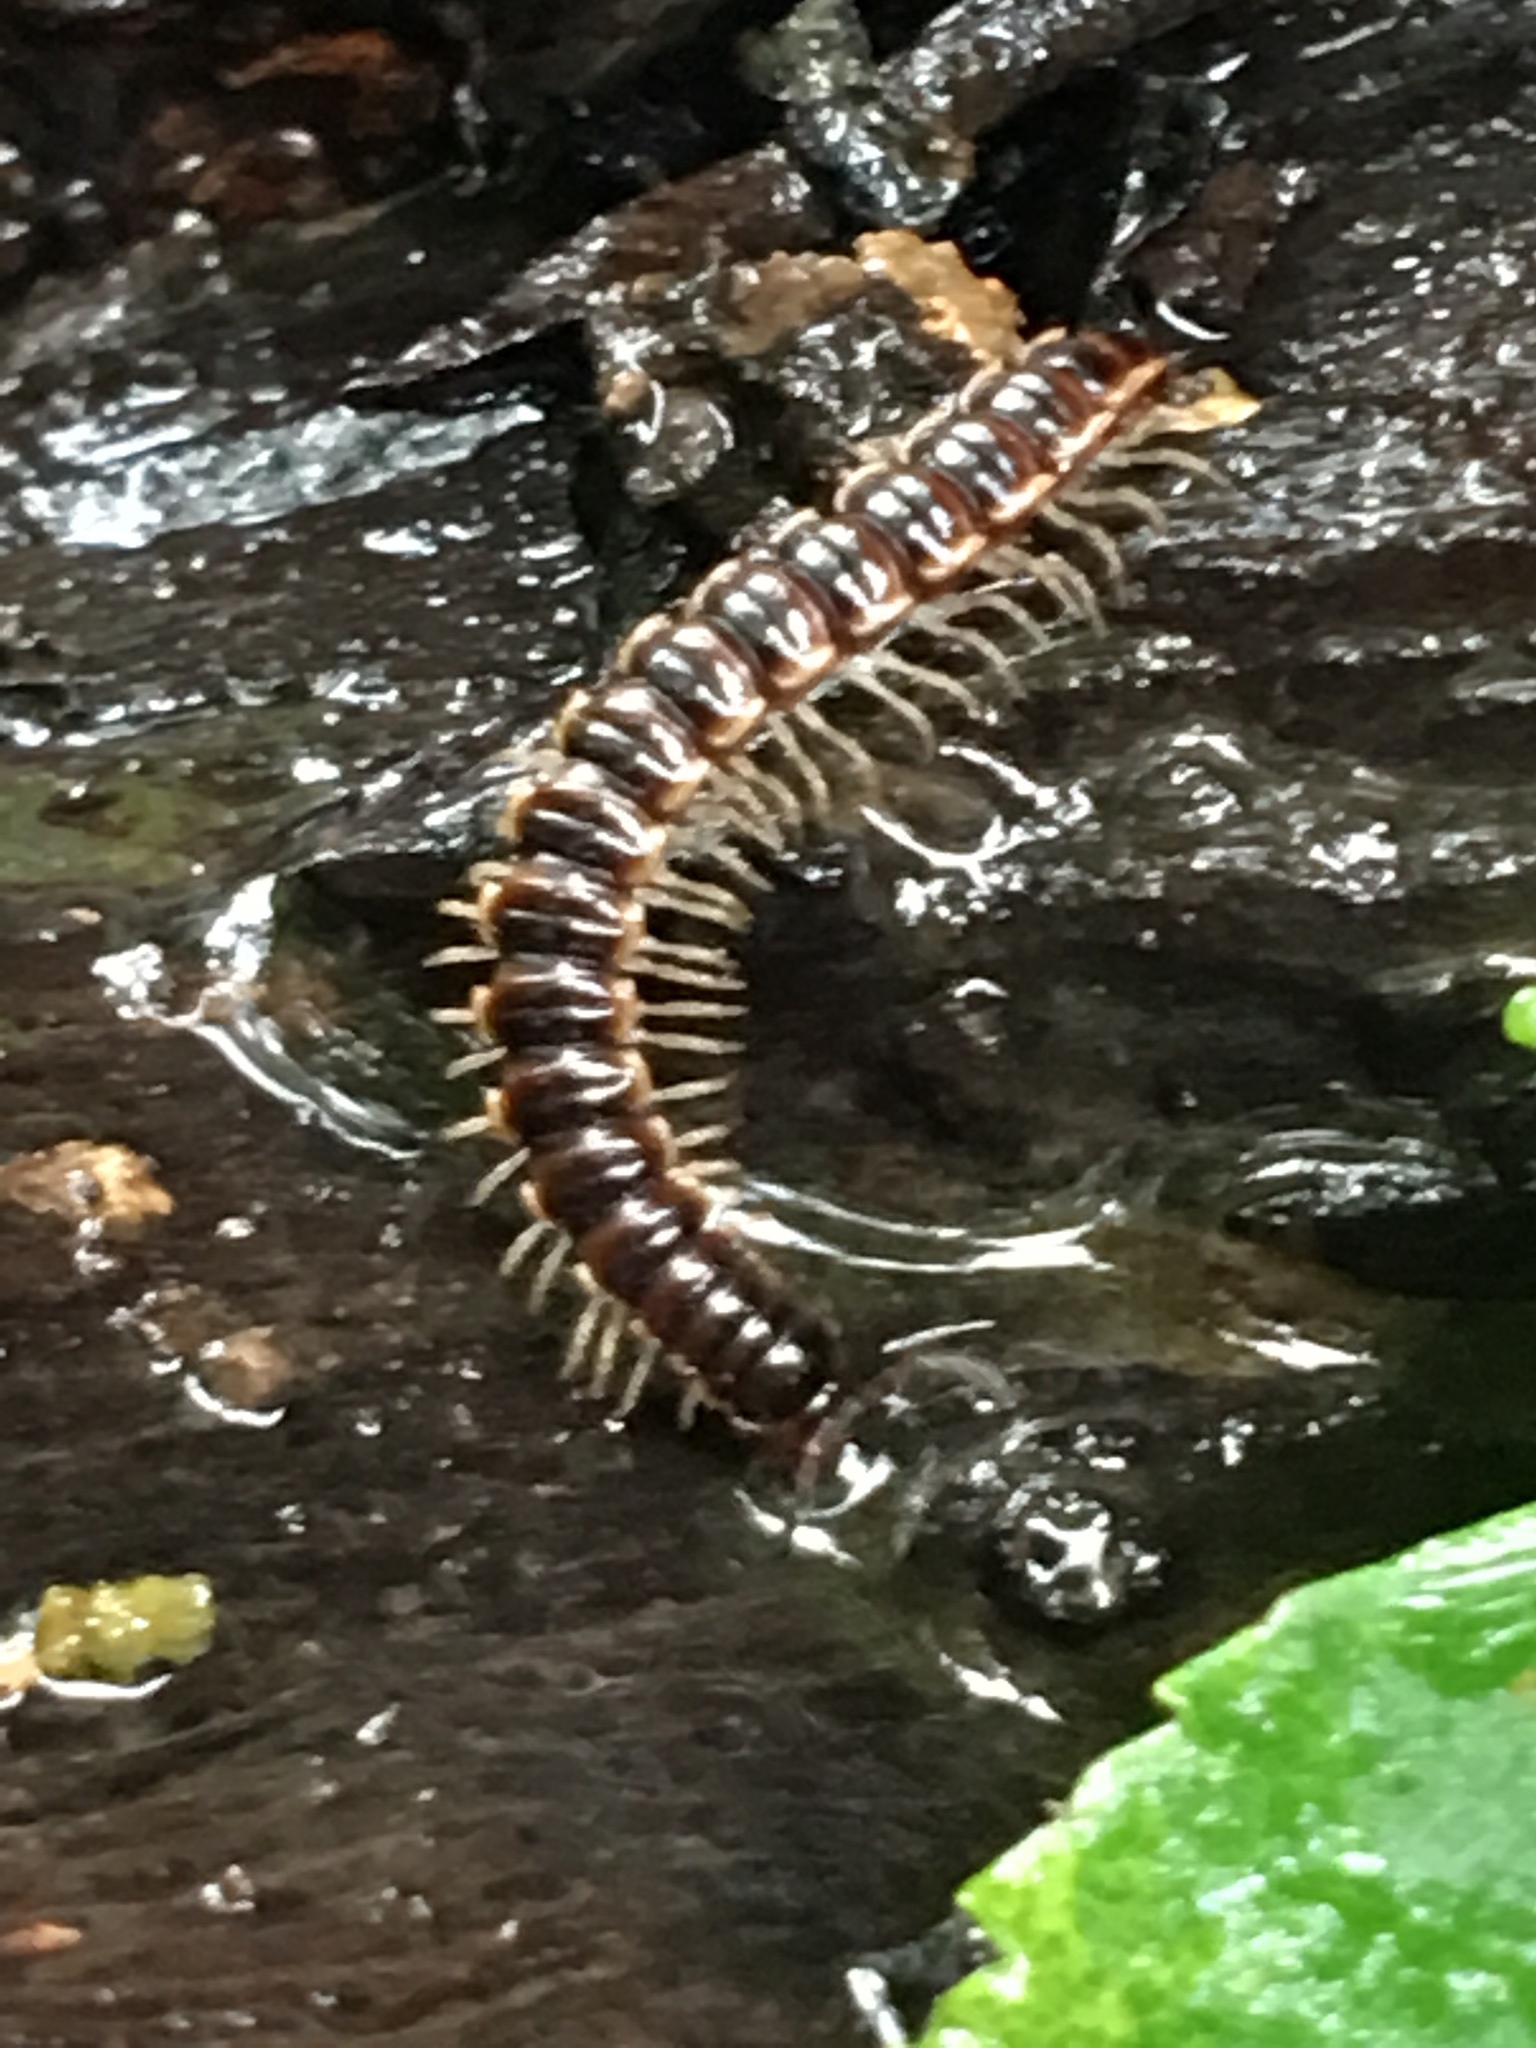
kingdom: Animalia
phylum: Arthropoda
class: Diplopoda
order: Polydesmida
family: Paradoxosomatidae
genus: Oxidus
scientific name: Oxidus gracilis
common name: Greenhouse millipede
